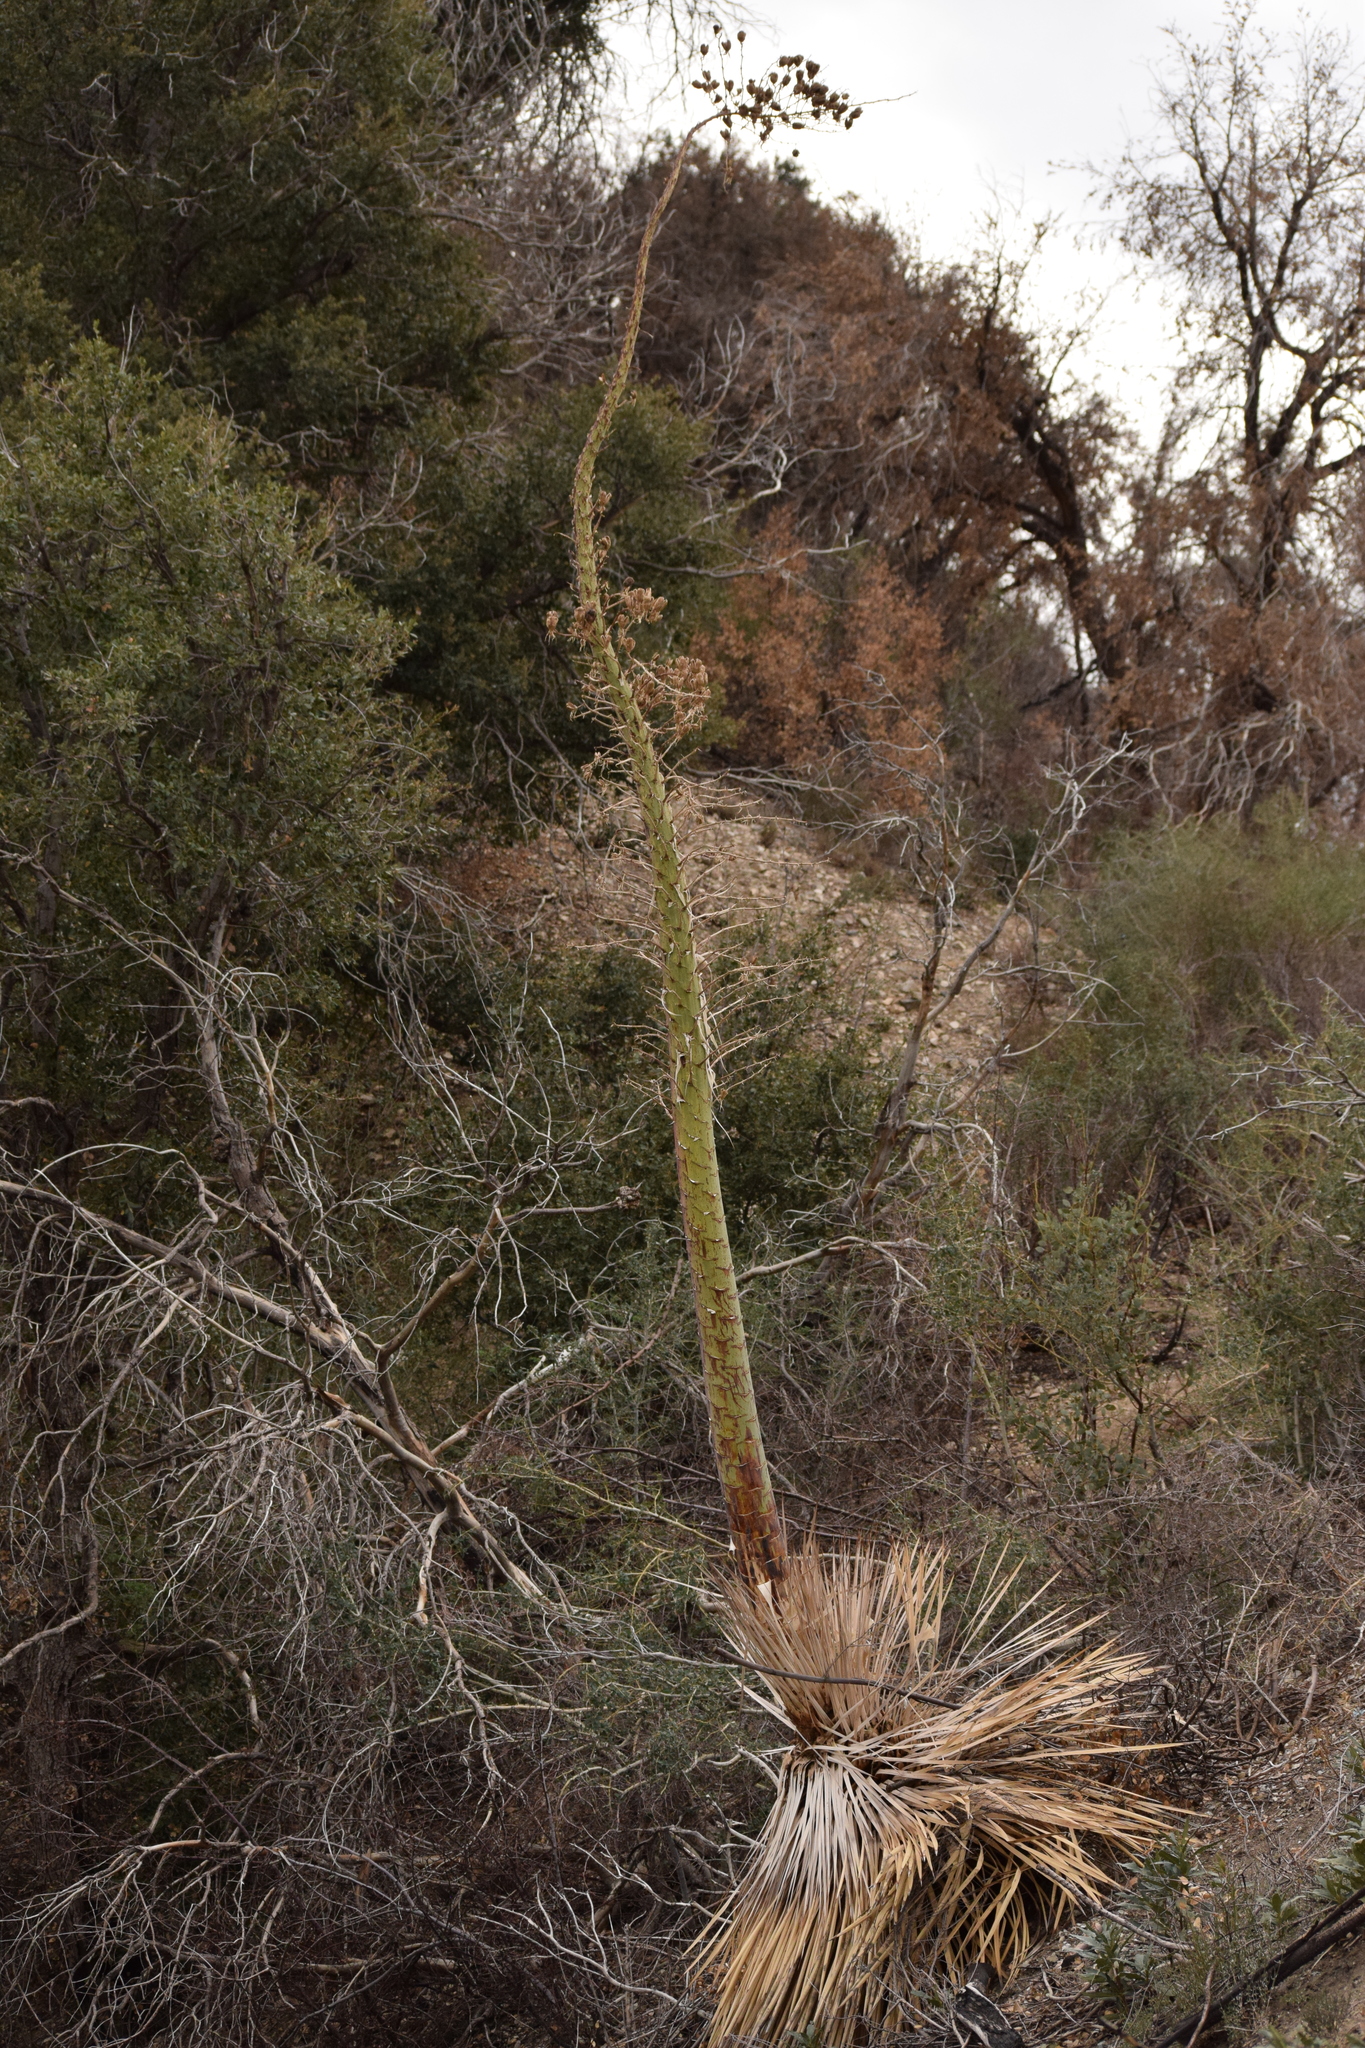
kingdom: Plantae
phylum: Tracheophyta
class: Liliopsida
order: Asparagales
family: Asparagaceae
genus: Hesperoyucca
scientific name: Hesperoyucca whipplei
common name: Our lord's-candle
